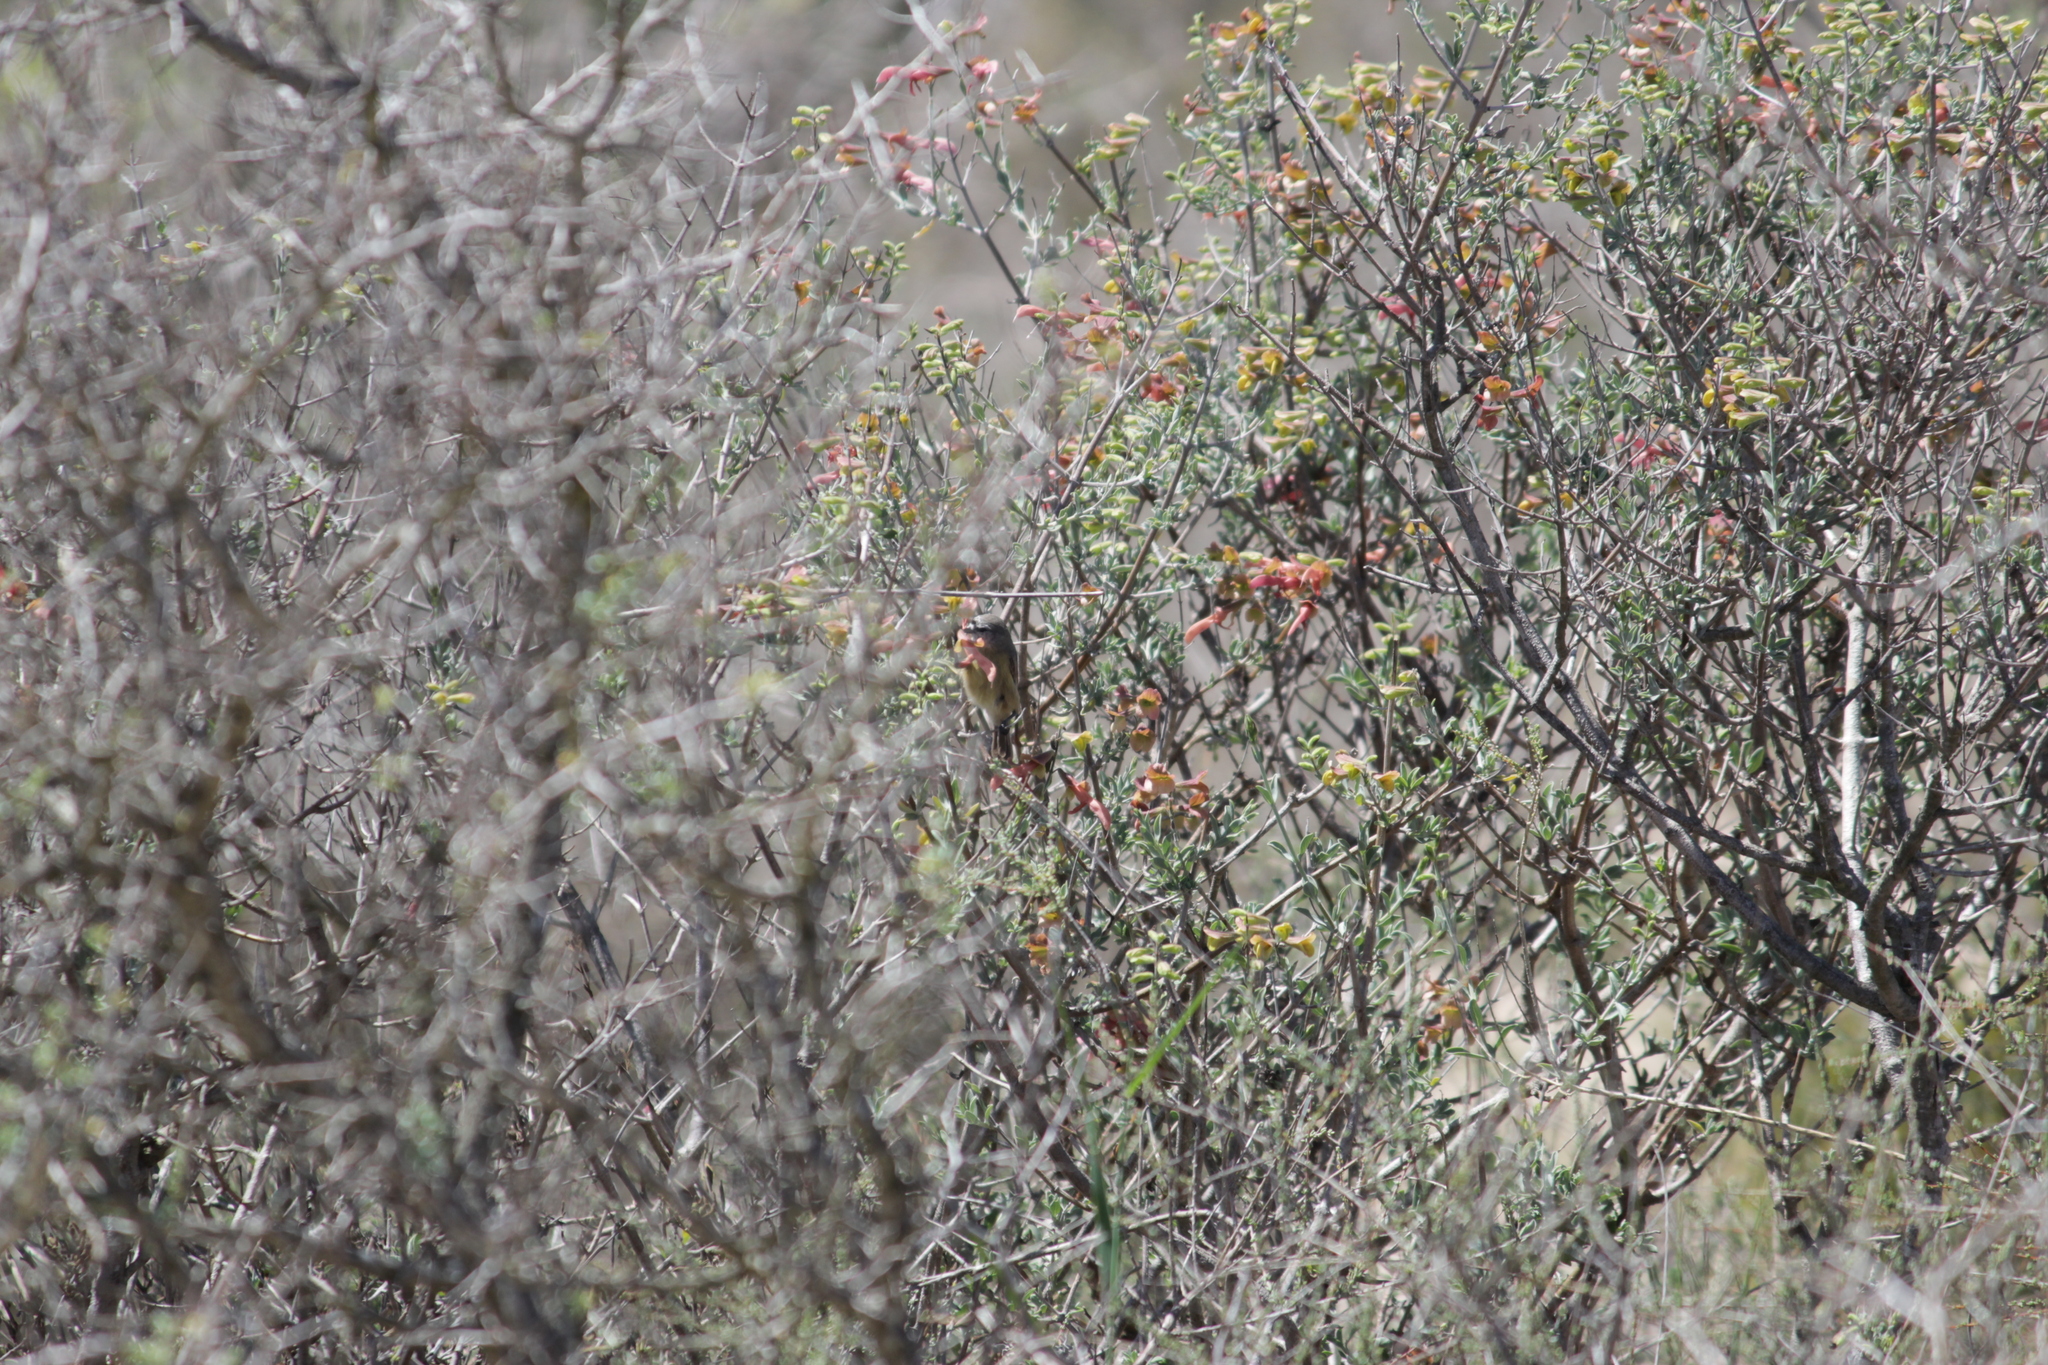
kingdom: Animalia
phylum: Chordata
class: Aves
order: Passeriformes
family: Remizidae
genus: Anthoscopus
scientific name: Anthoscopus minutus
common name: Cape penduline tit
